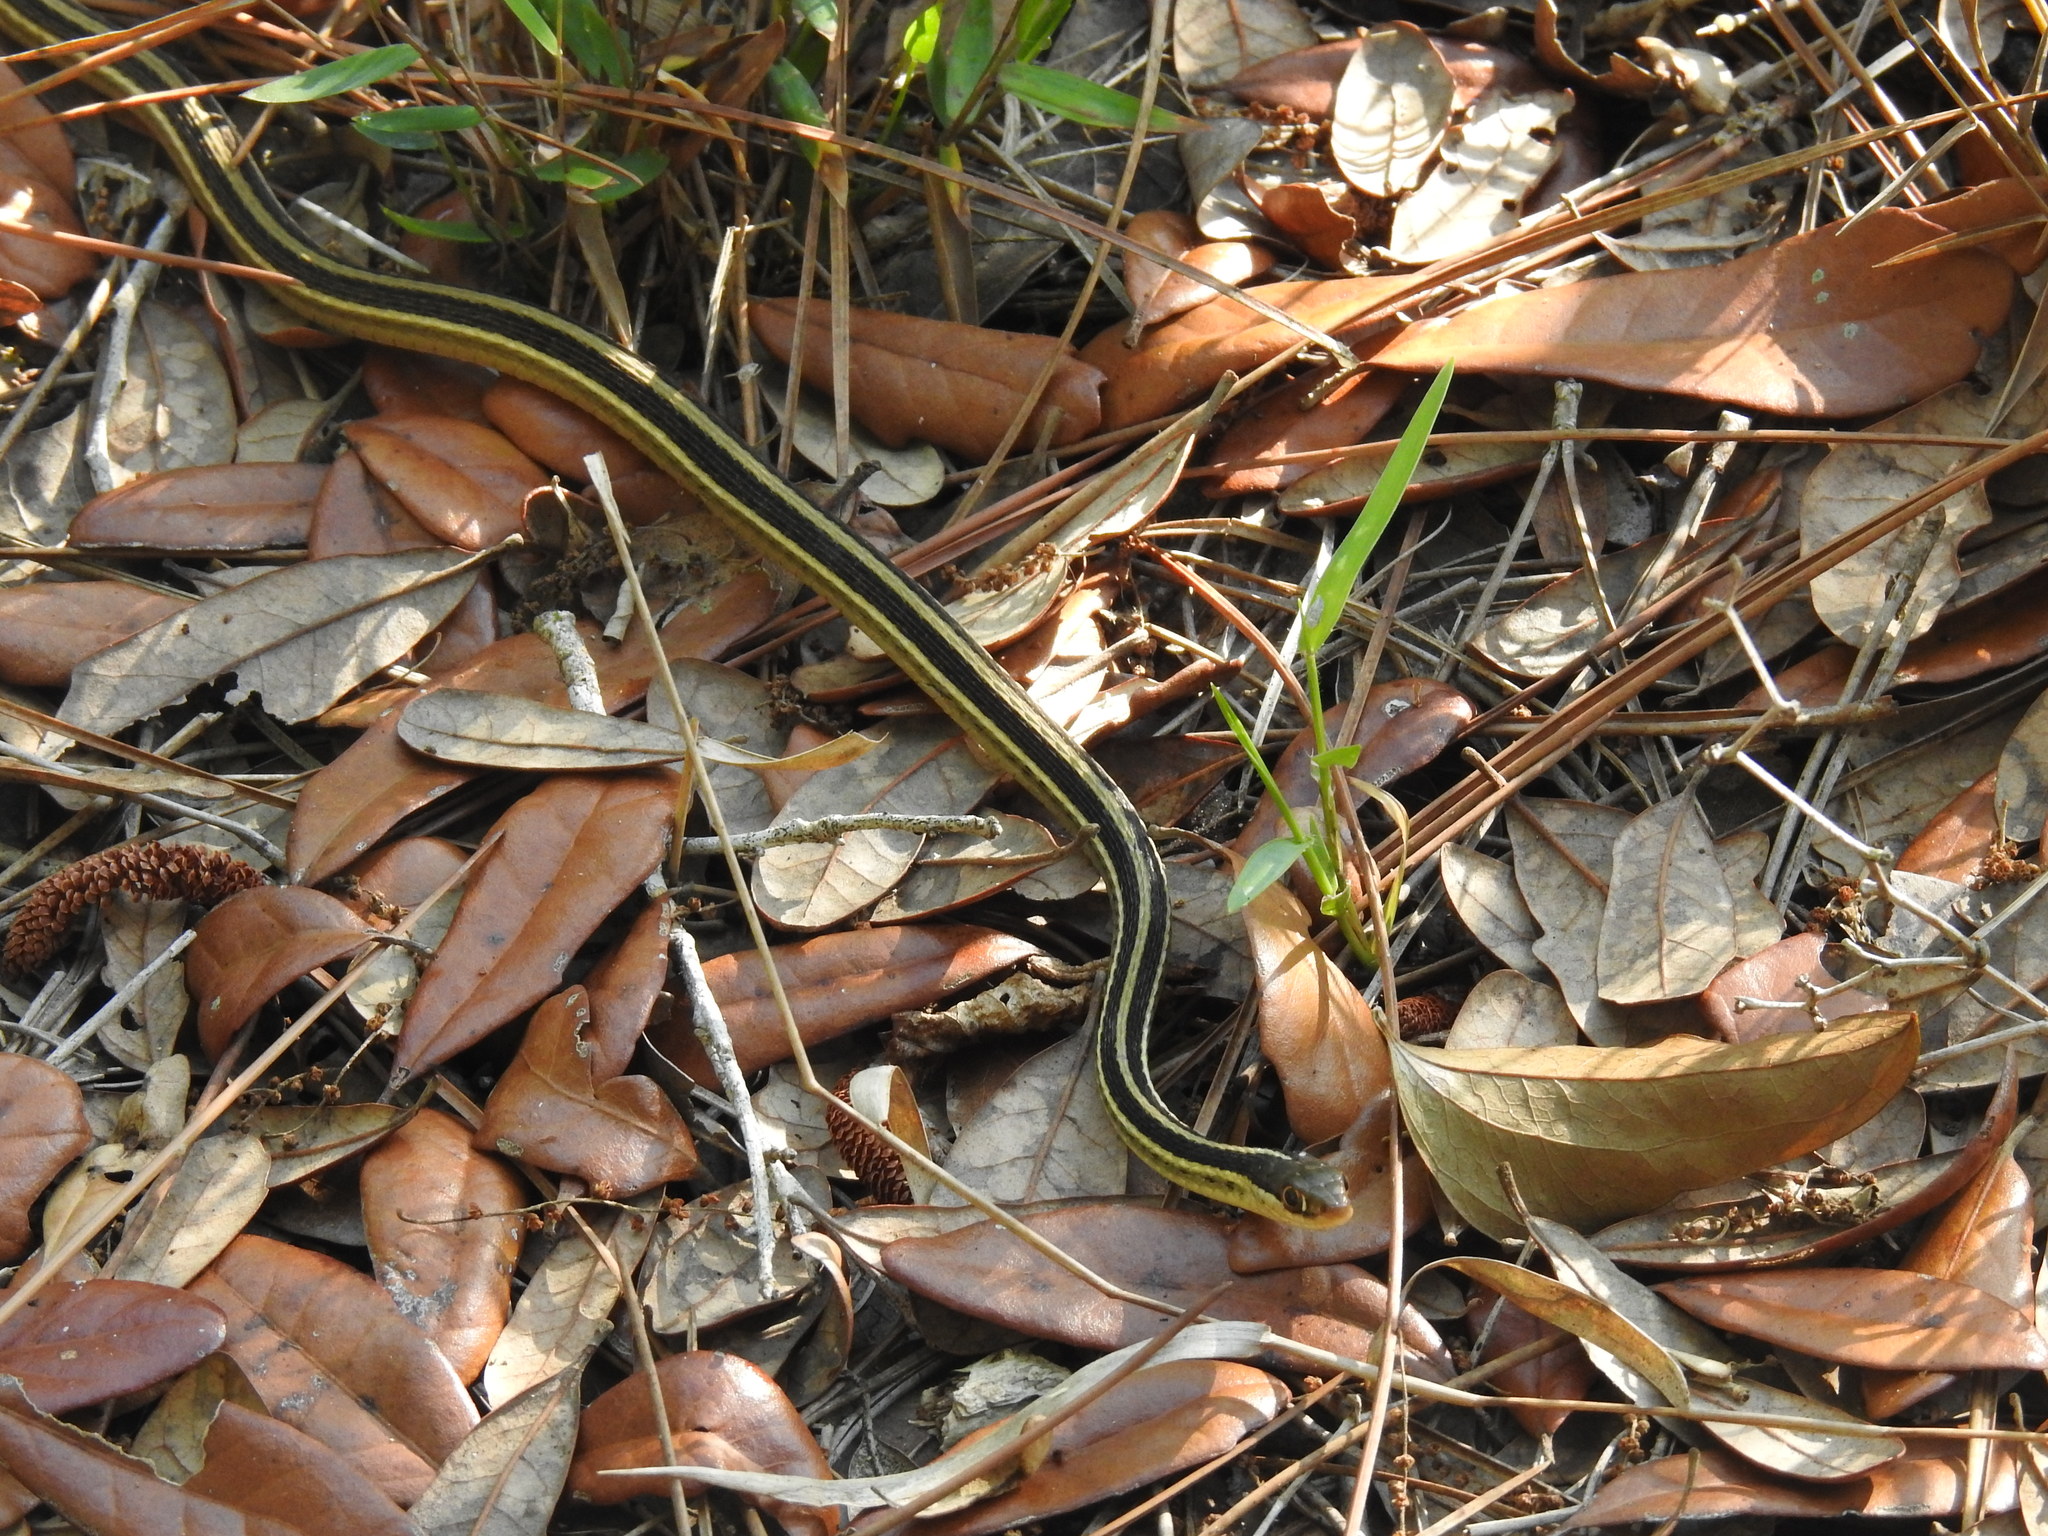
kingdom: Animalia
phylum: Chordata
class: Squamata
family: Colubridae
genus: Thamnophis
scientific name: Thamnophis saurita
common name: Eastern ribbonsnake
